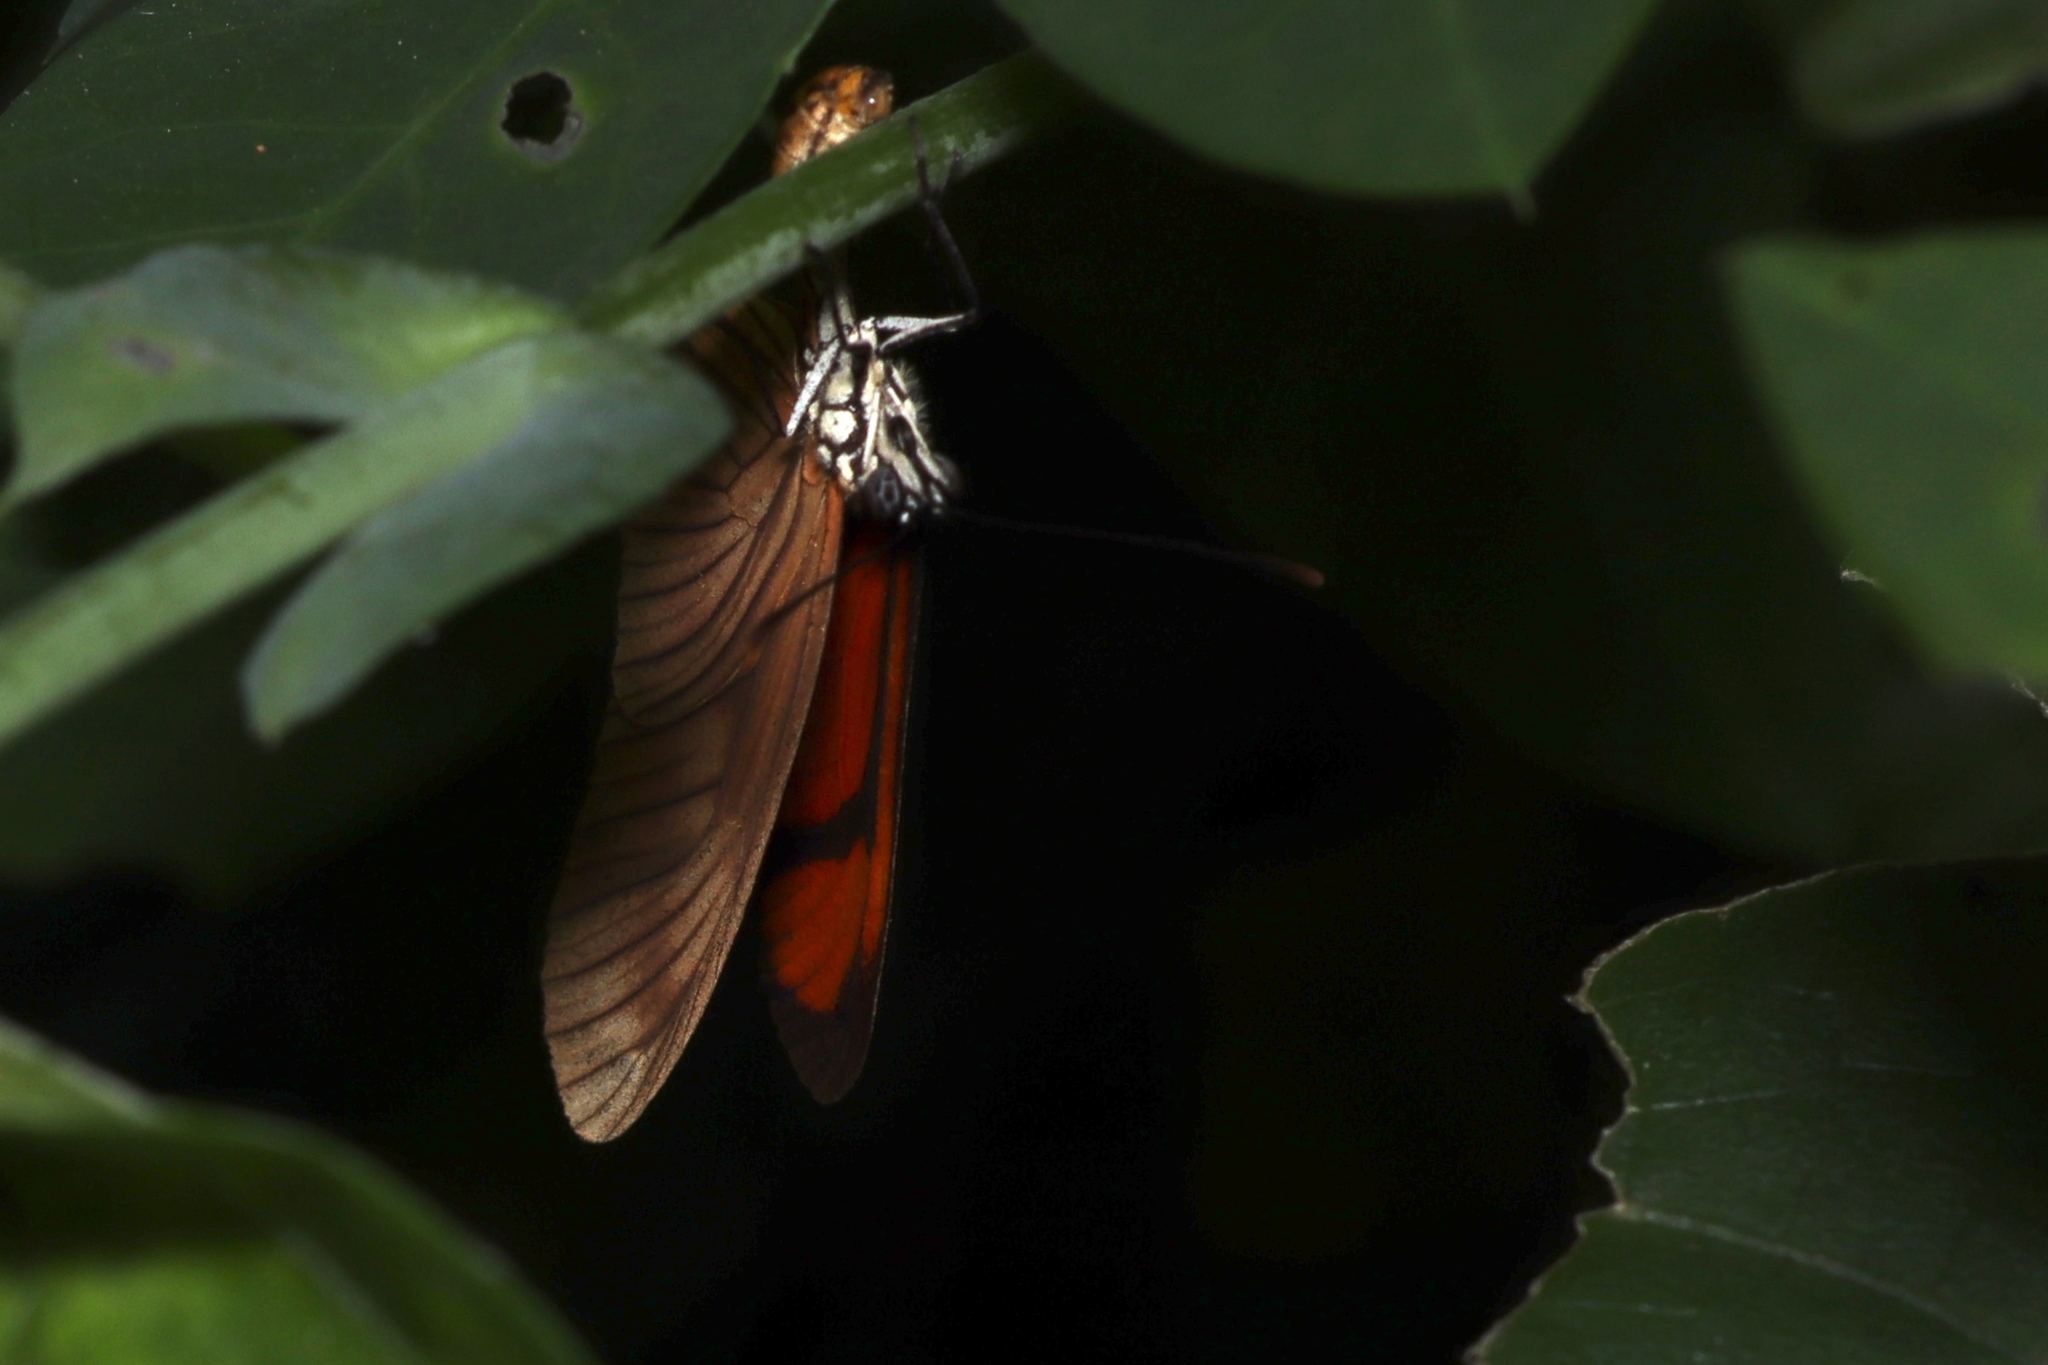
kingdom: Animalia
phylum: Arthropoda
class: Insecta
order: Lepidoptera
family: Nymphalidae
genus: Heliconius
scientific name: Heliconius aliphera
